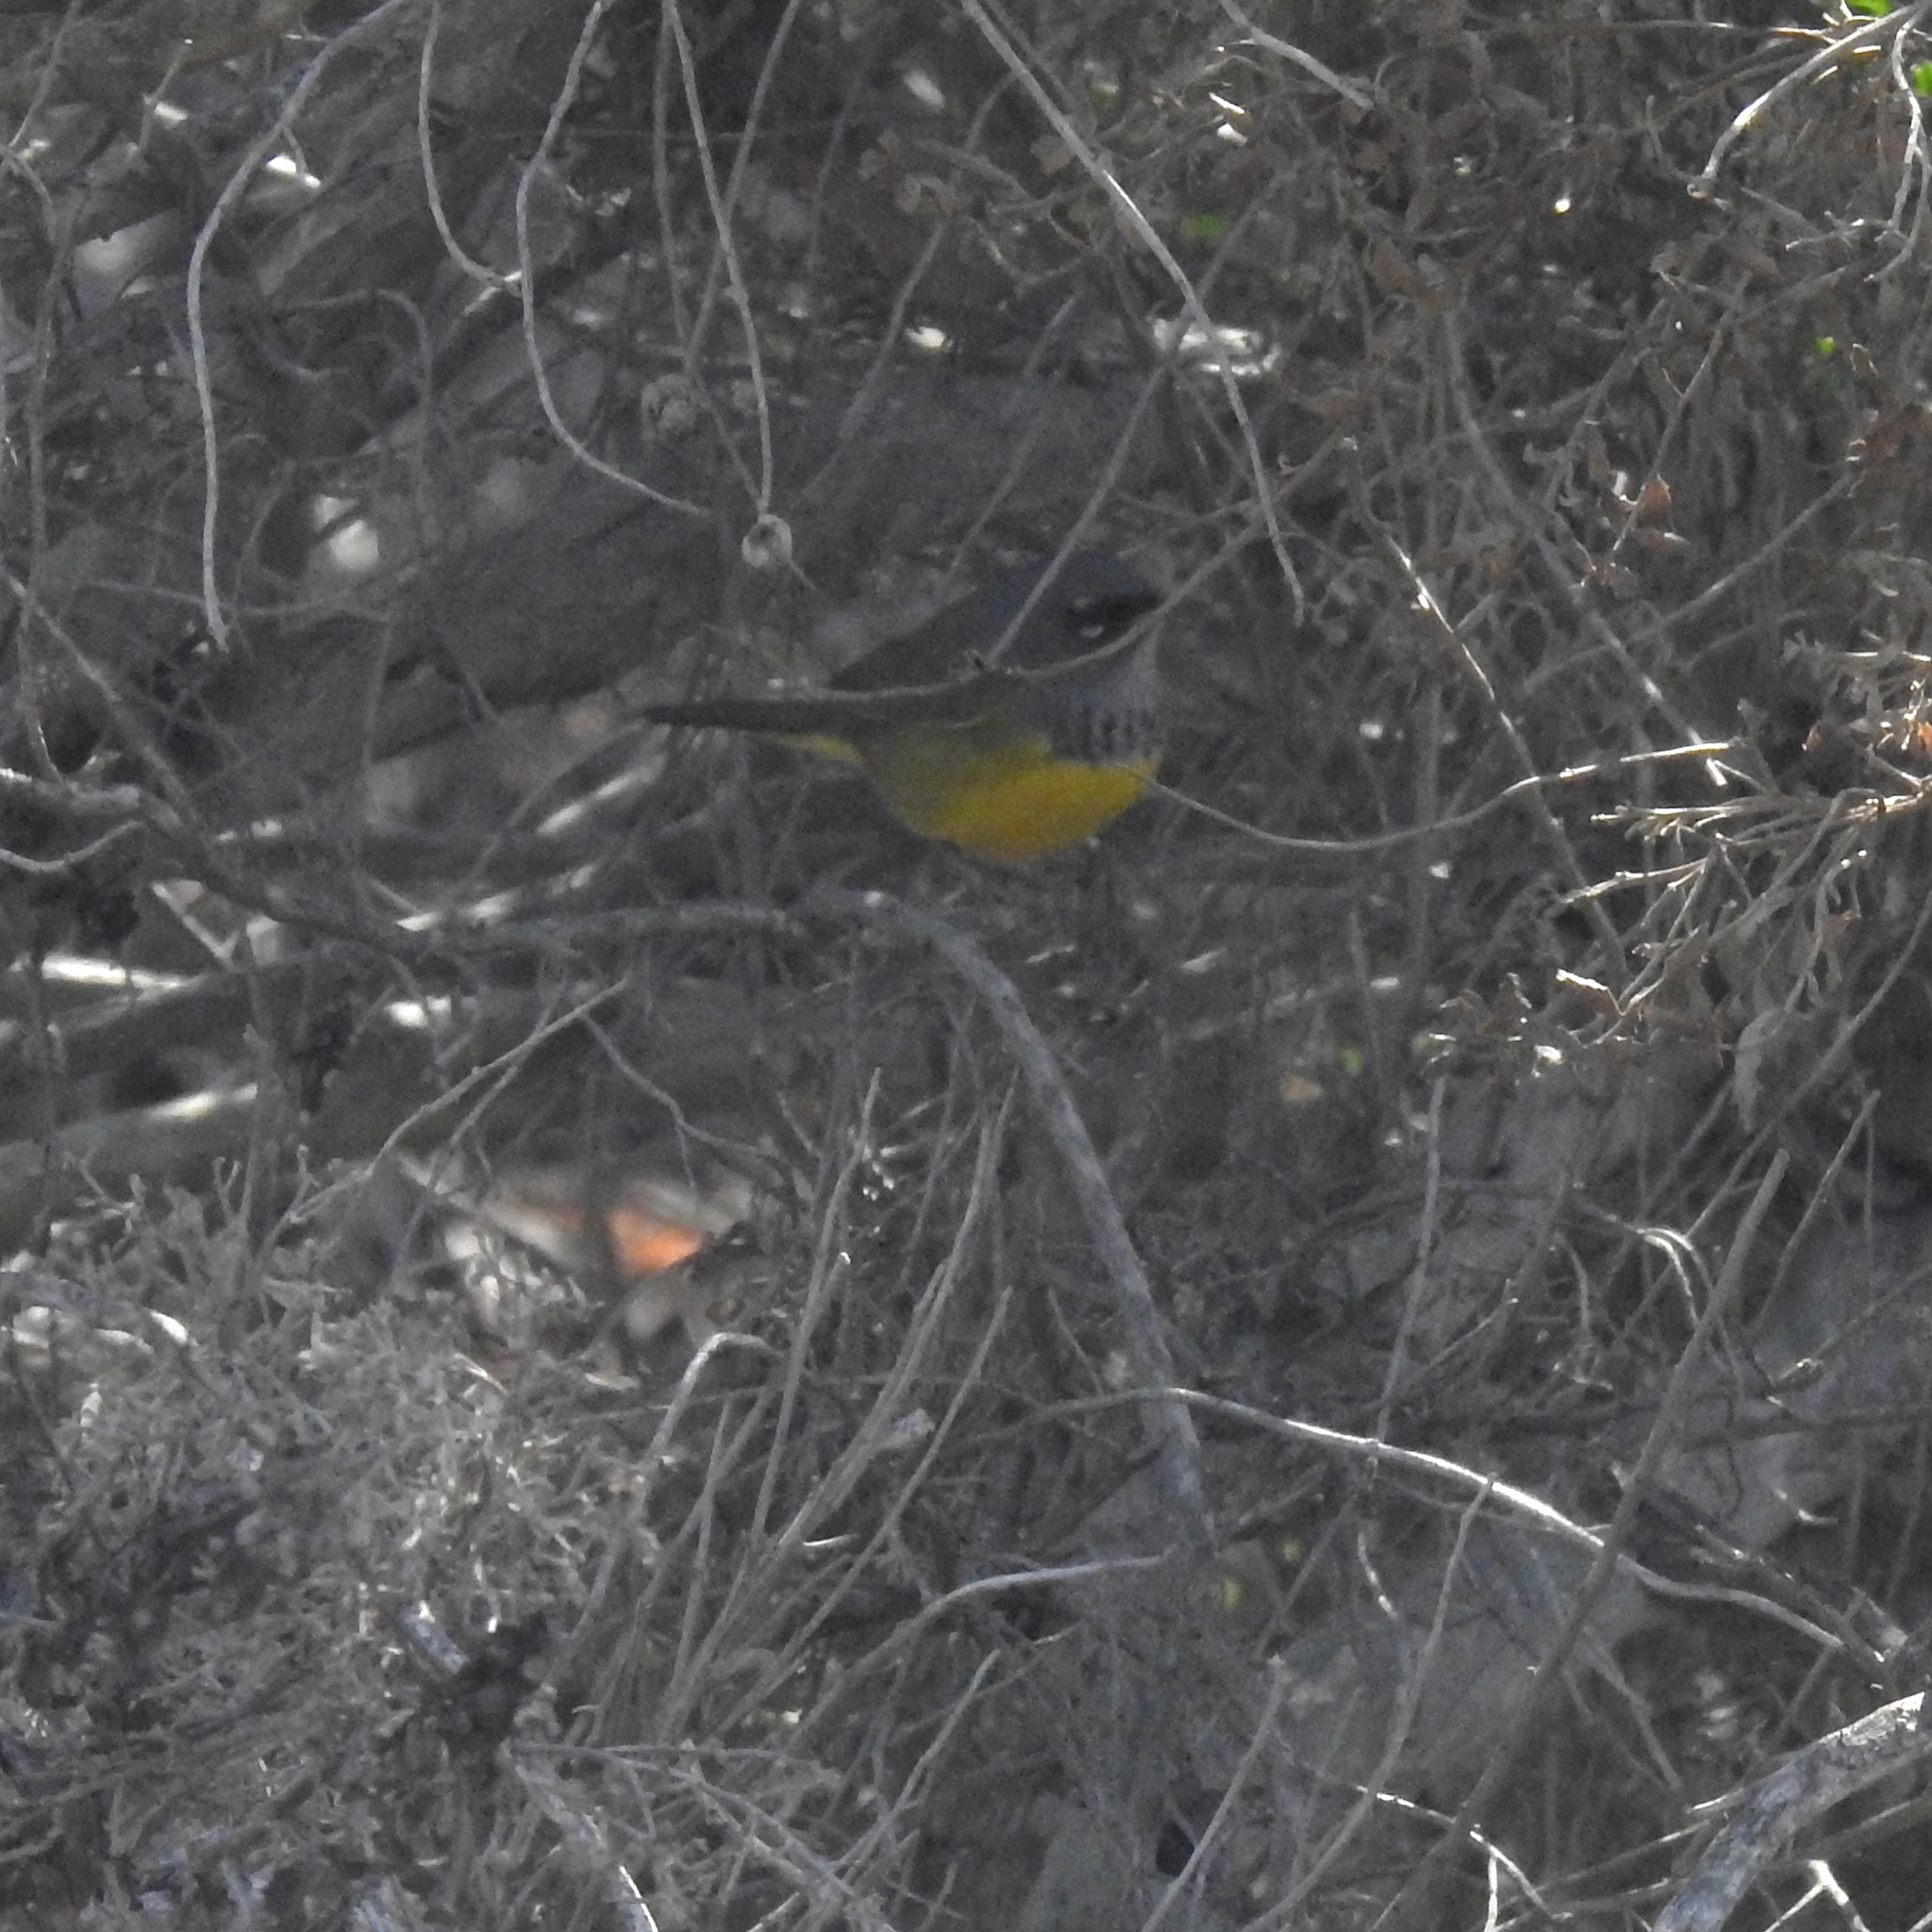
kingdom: Animalia
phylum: Chordata
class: Aves
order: Passeriformes
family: Parulidae
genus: Geothlypis
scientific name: Geothlypis tolmiei
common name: Macgillivray's warbler
